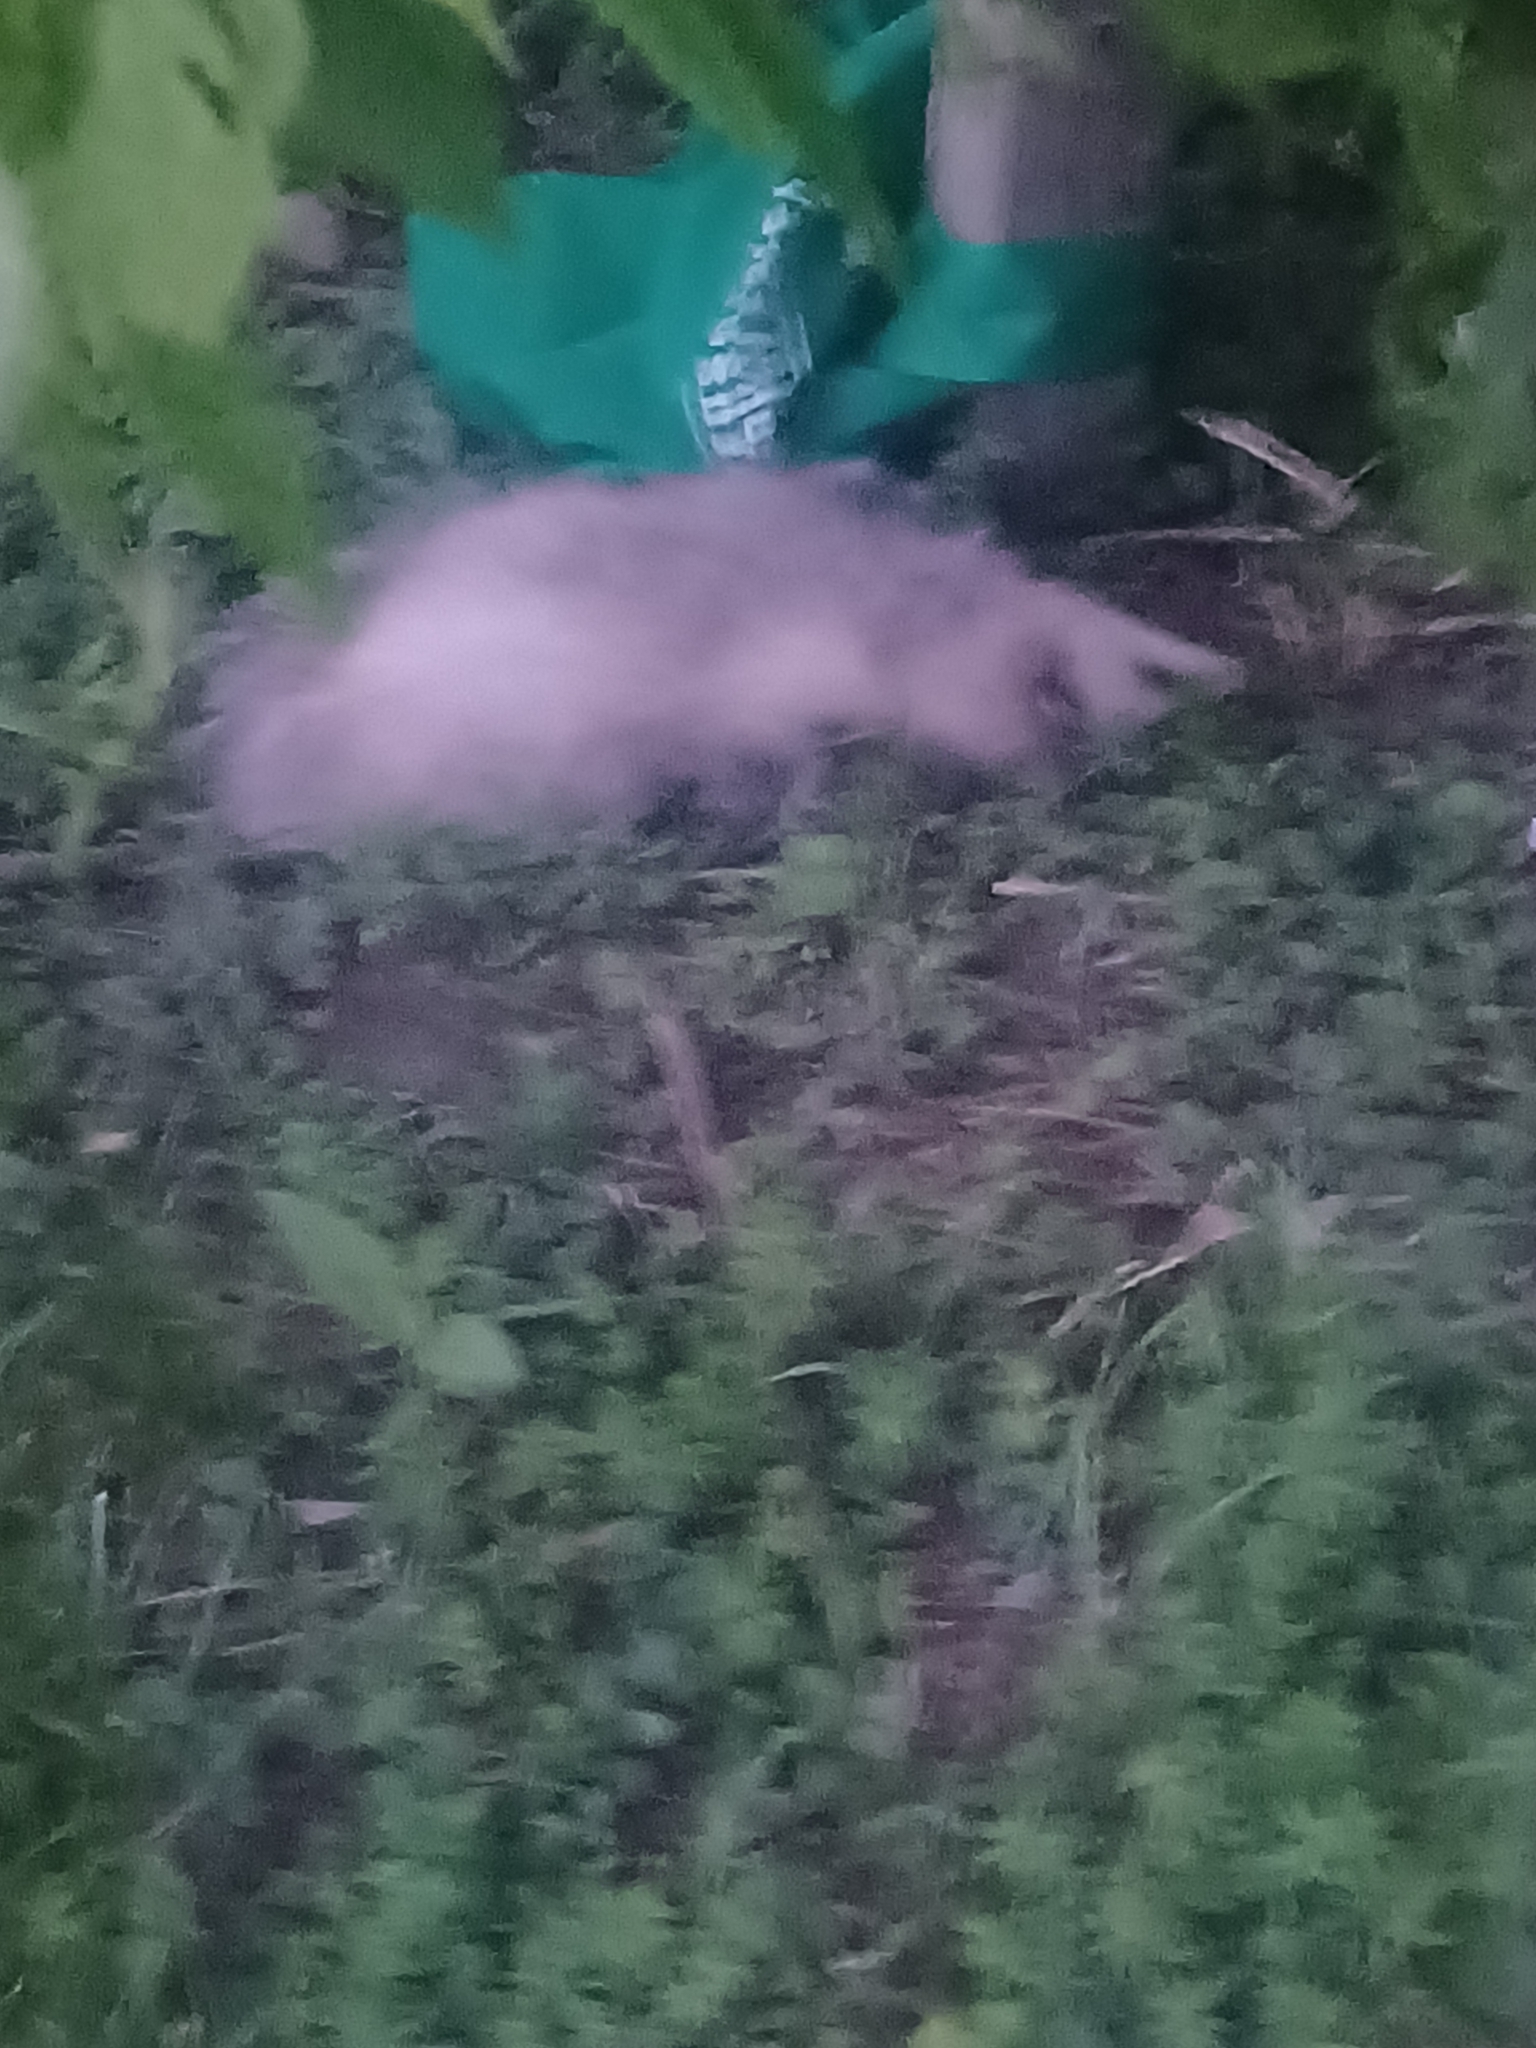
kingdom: Animalia
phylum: Chordata
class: Mammalia
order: Didelphimorphia
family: Didelphidae
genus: Didelphis
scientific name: Didelphis virginiana
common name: Virginia opossum
